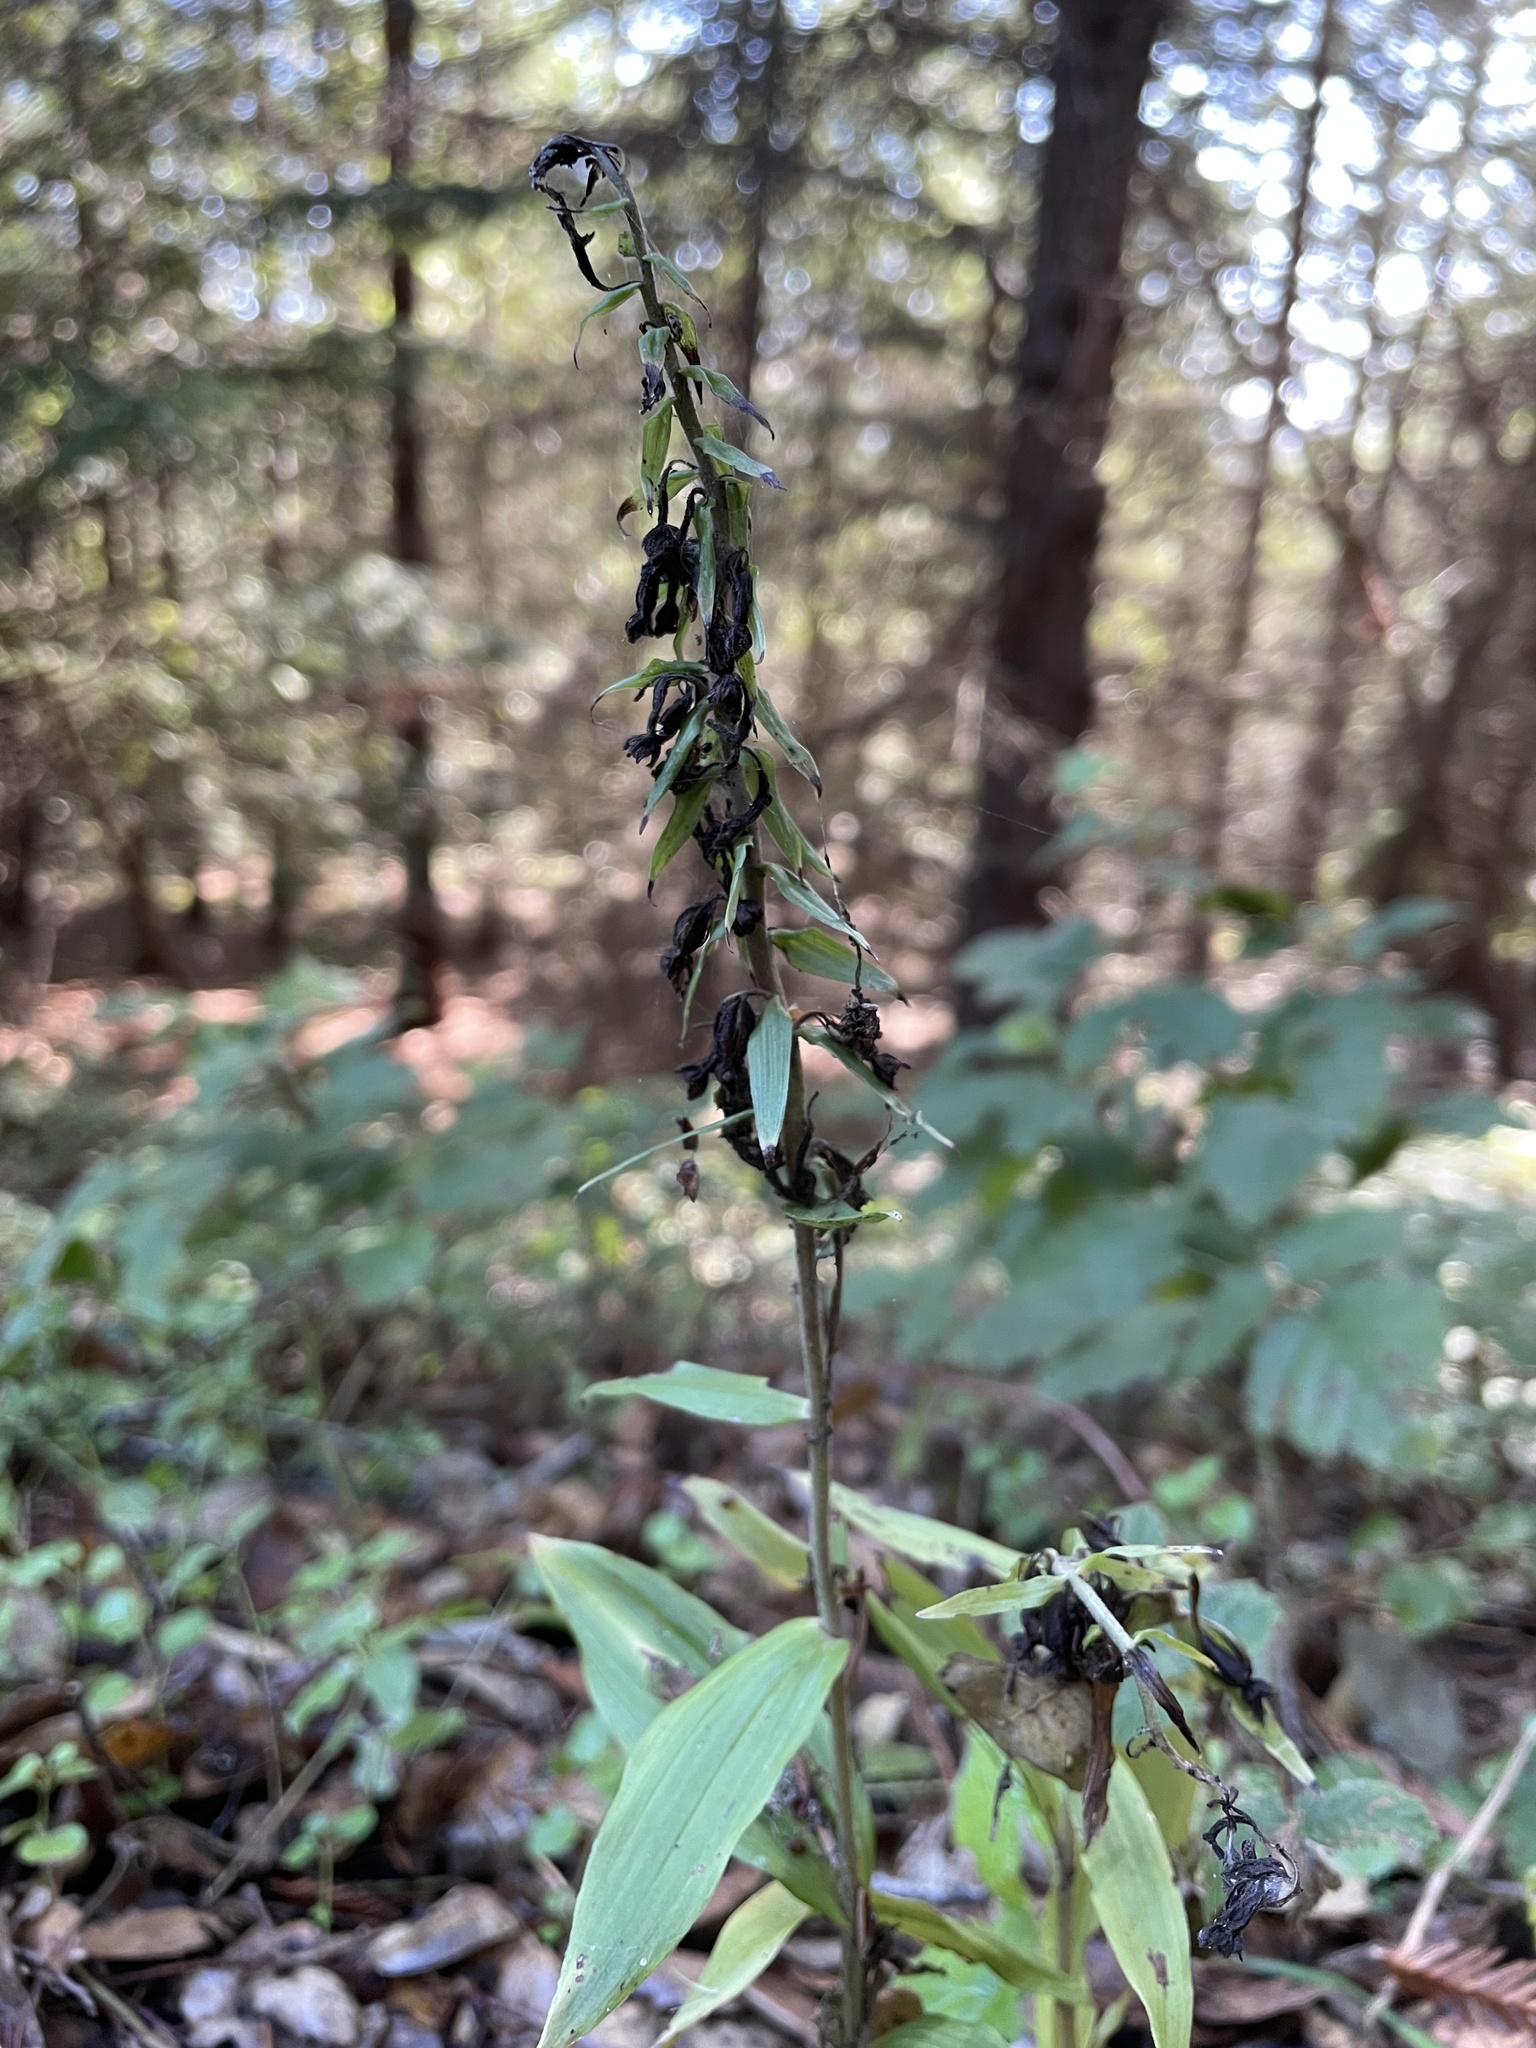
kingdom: Plantae
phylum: Tracheophyta
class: Liliopsida
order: Asparagales
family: Orchidaceae
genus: Epipactis
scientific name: Epipactis helleborine
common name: Broad-leaved helleborine
